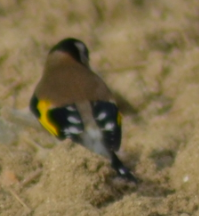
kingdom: Animalia
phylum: Chordata
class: Aves
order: Passeriformes
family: Fringillidae
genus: Carduelis
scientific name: Carduelis carduelis
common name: European goldfinch
